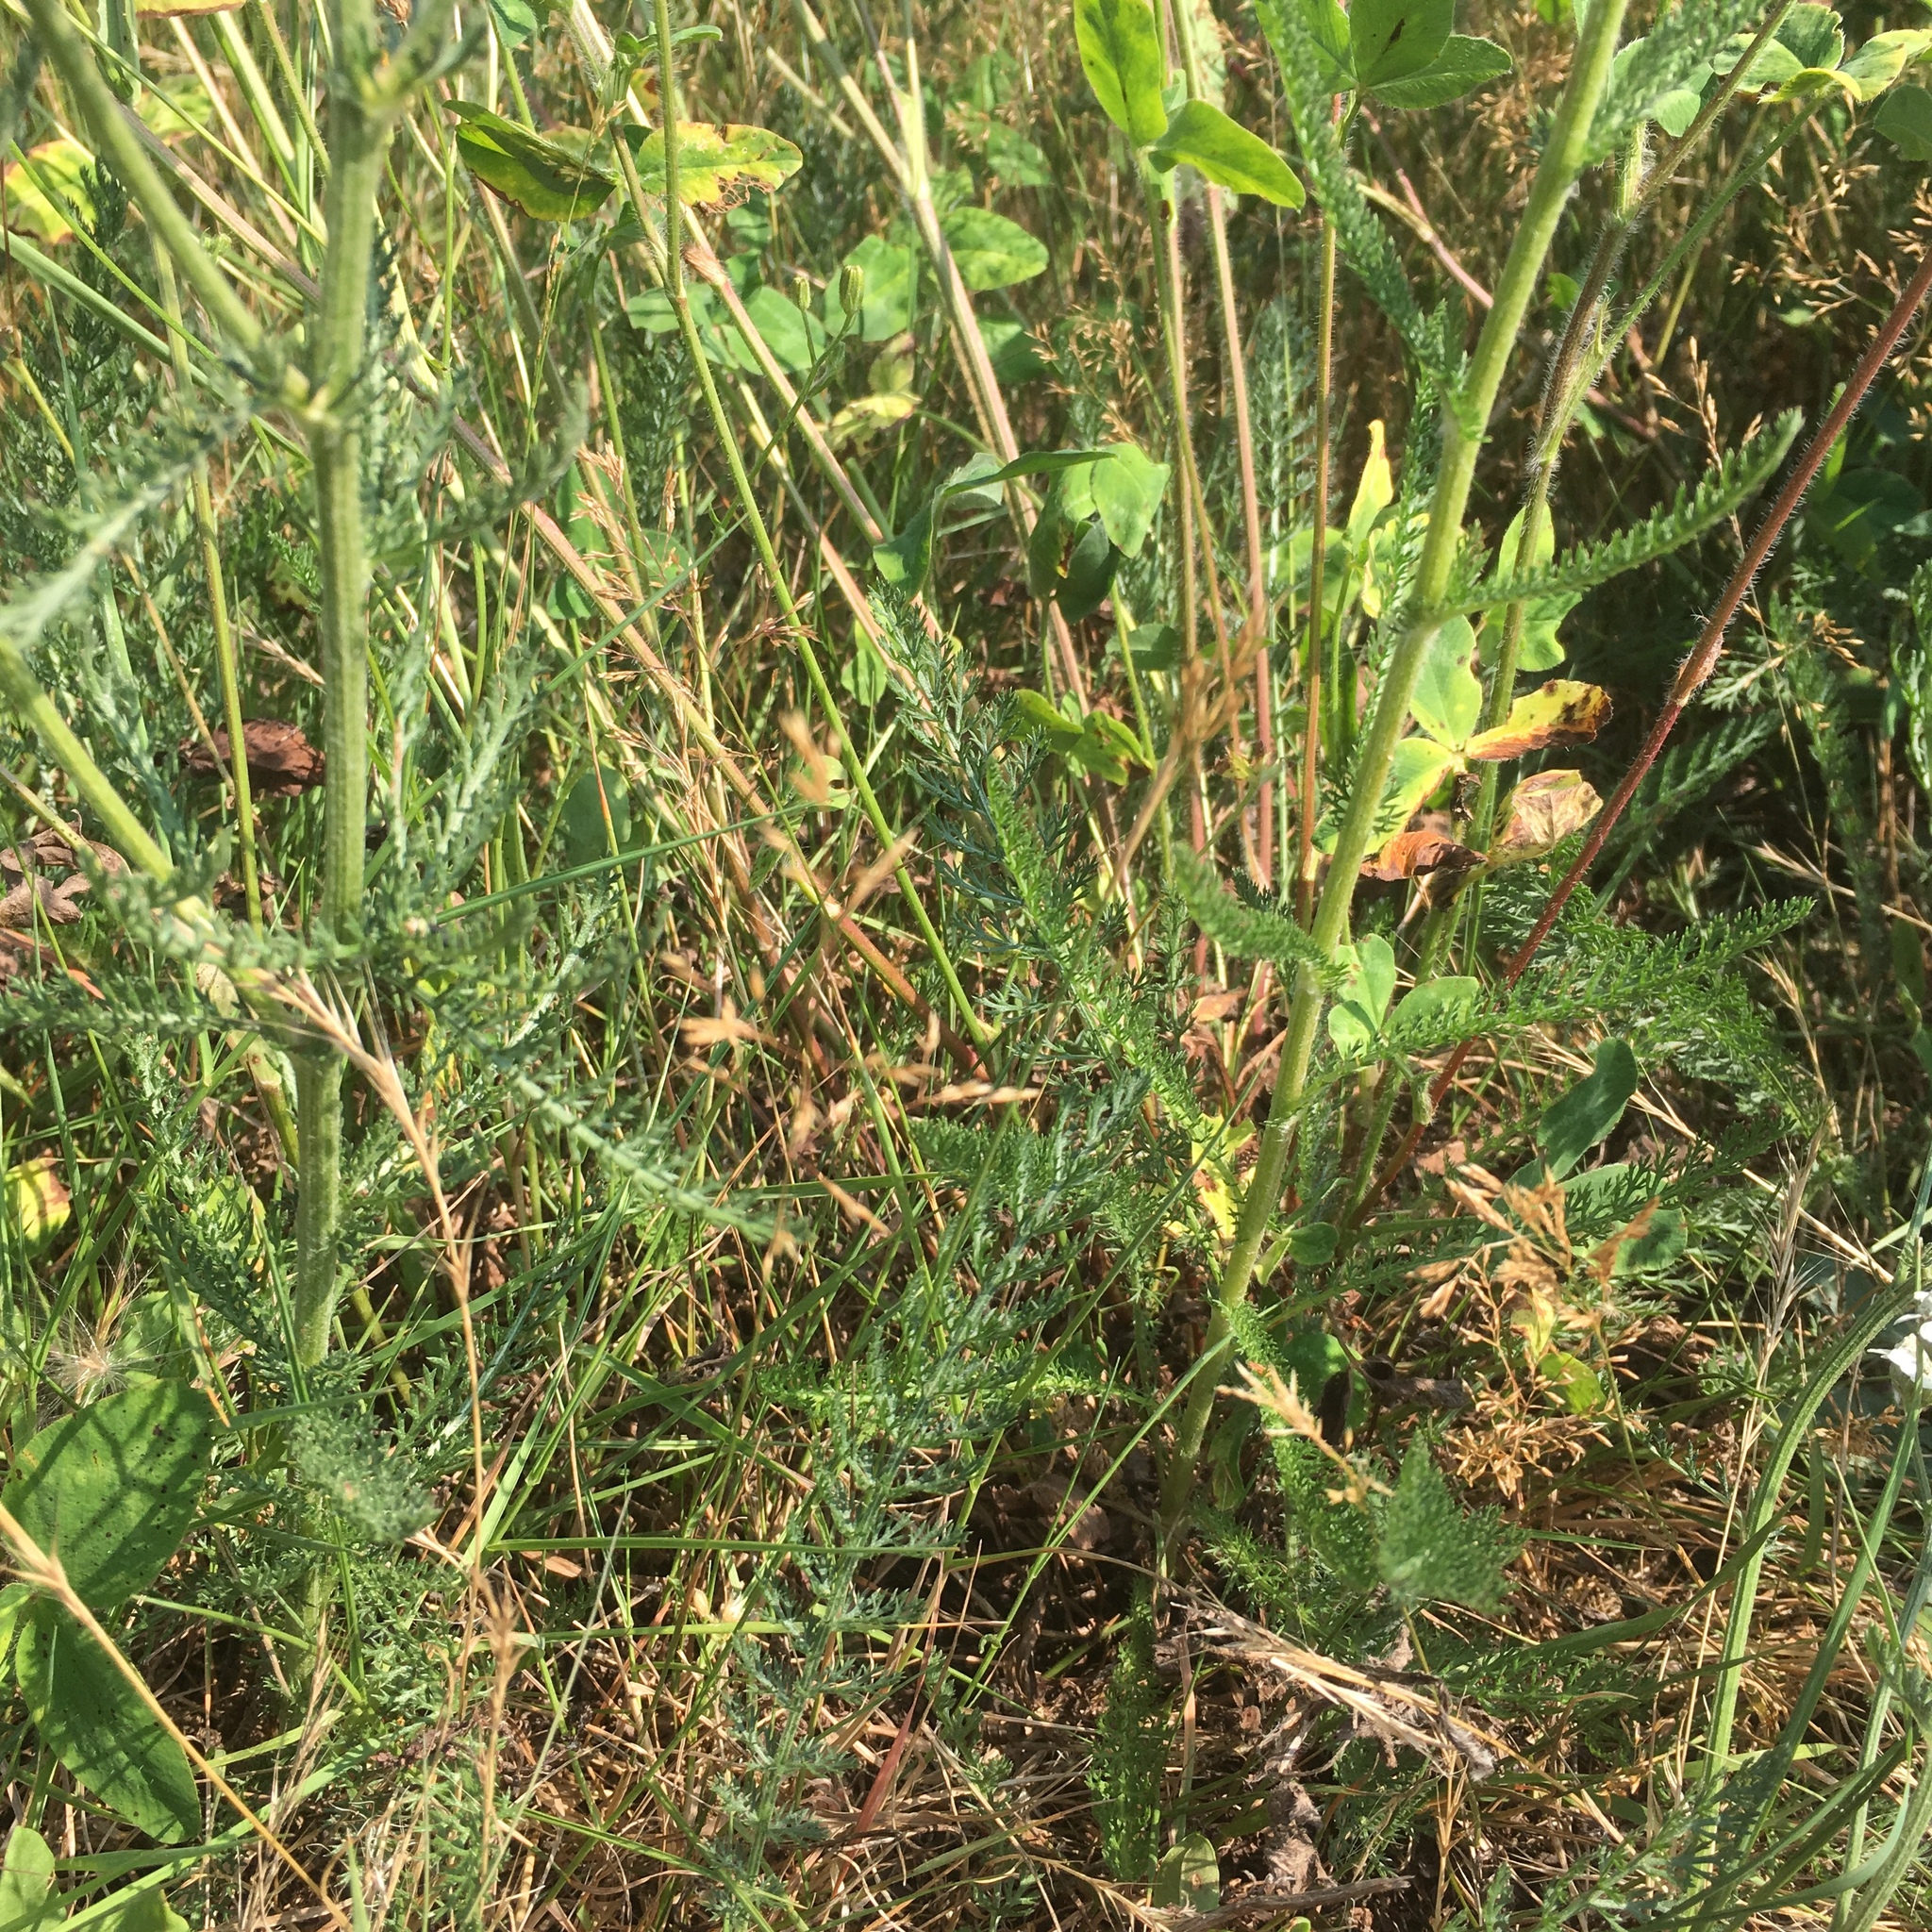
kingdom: Plantae
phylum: Tracheophyta
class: Magnoliopsida
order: Asterales
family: Asteraceae
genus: Achillea
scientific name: Achillea millefolium
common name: Yarrow
